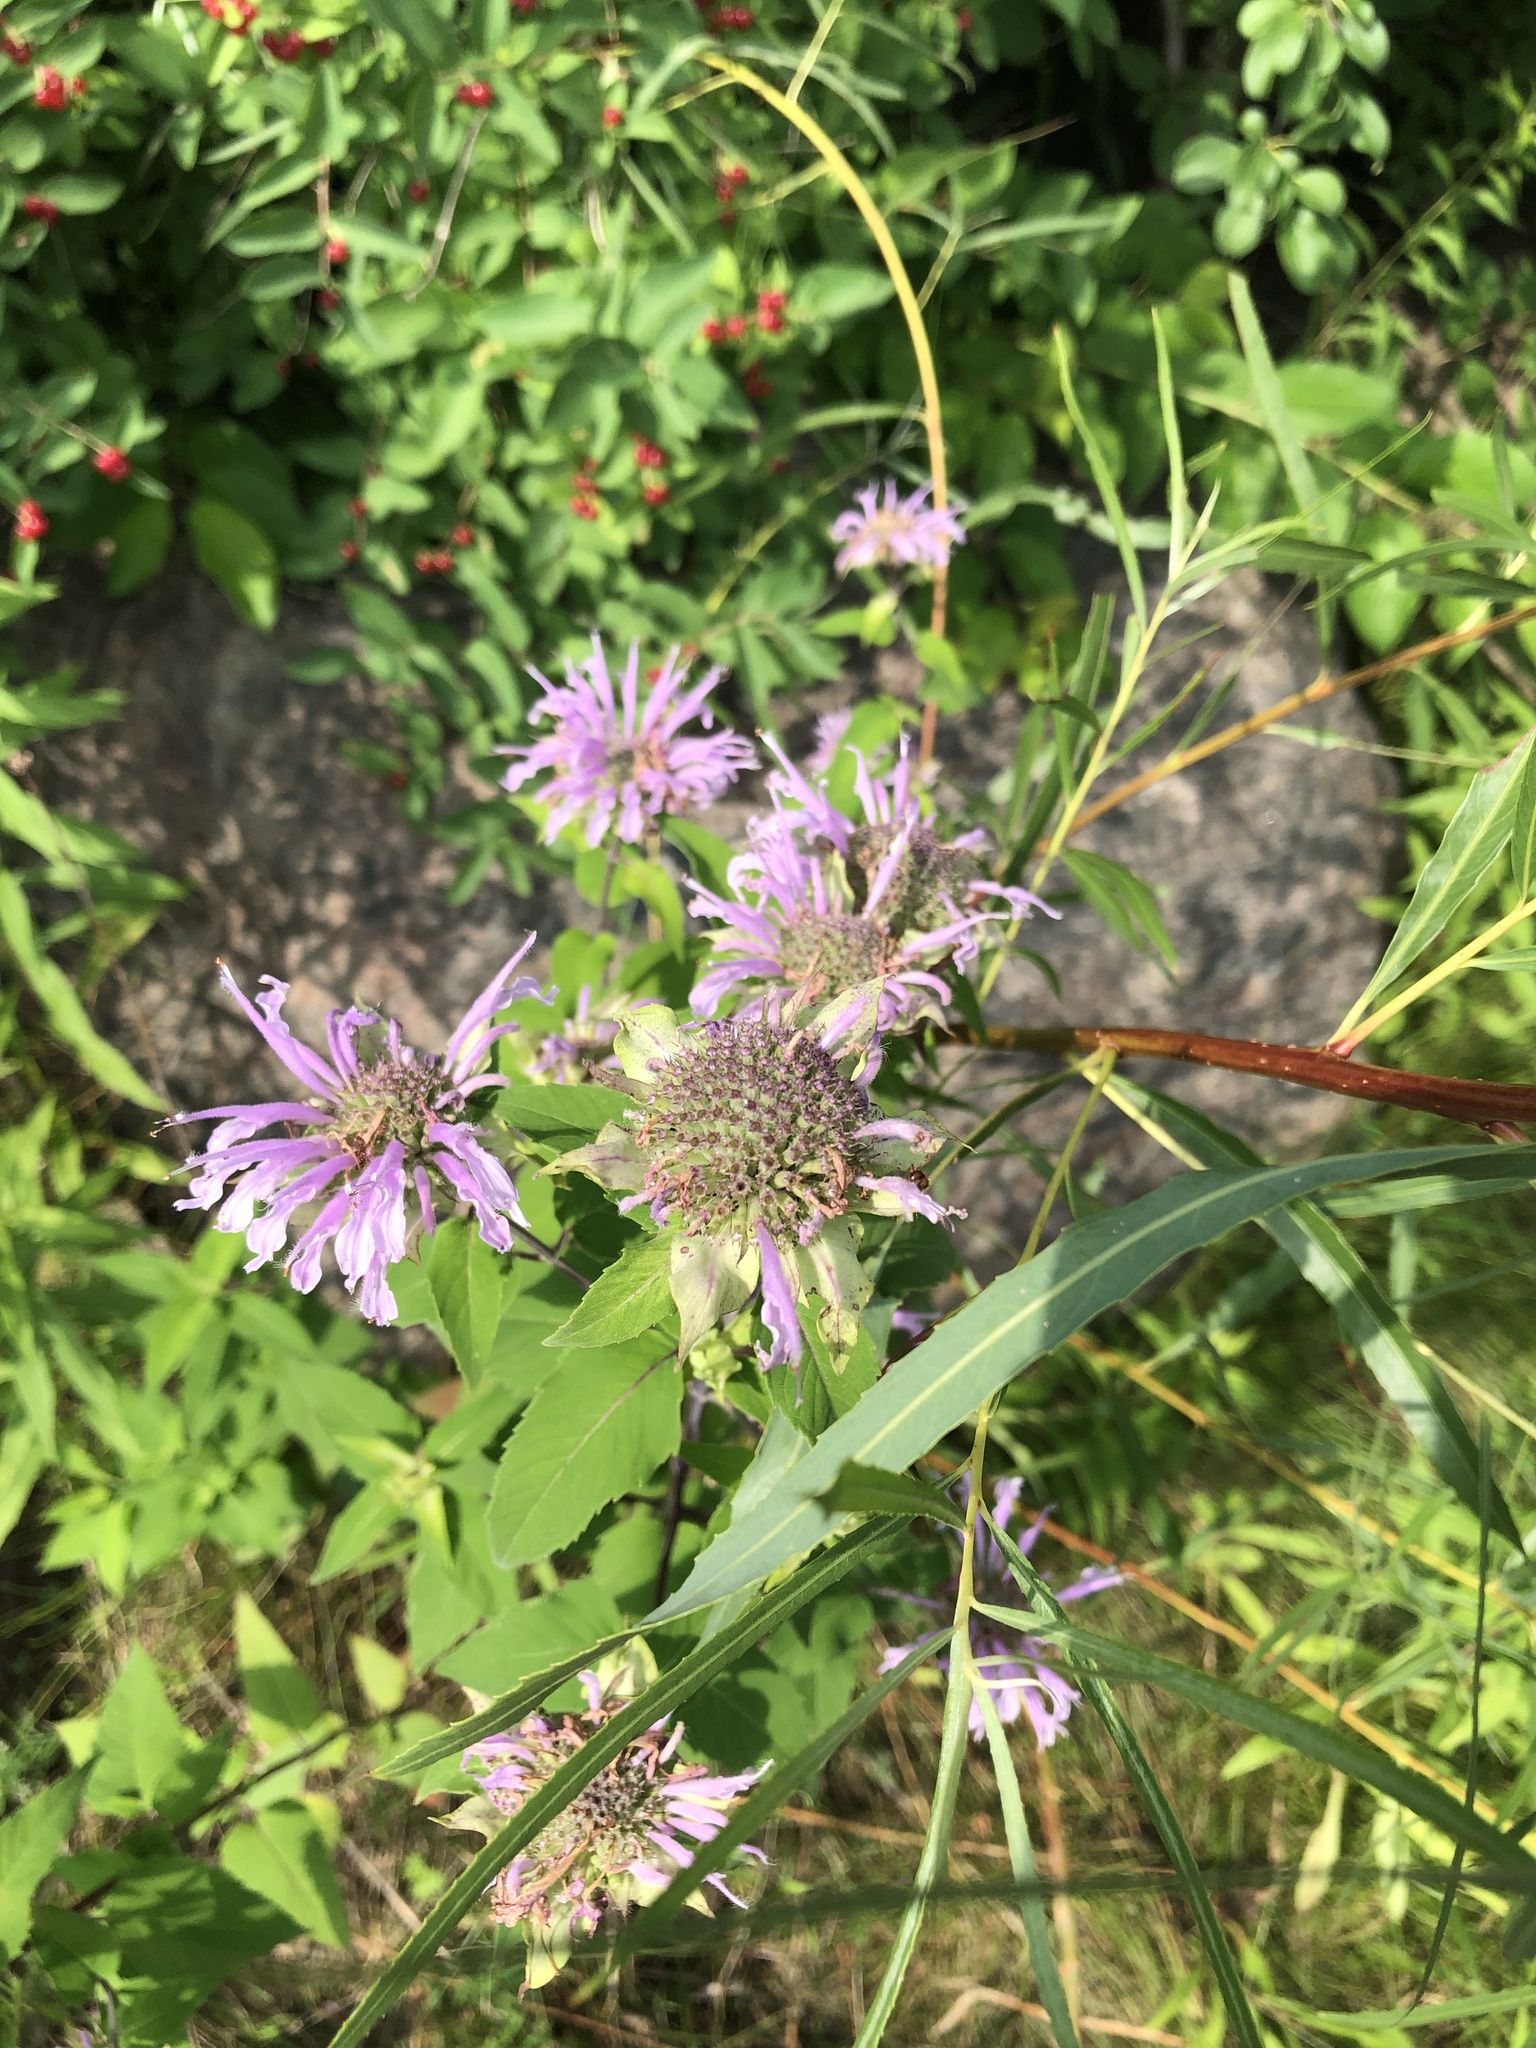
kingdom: Plantae
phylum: Tracheophyta
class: Magnoliopsida
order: Lamiales
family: Lamiaceae
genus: Monarda
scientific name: Monarda fistulosa
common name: Purple beebalm
